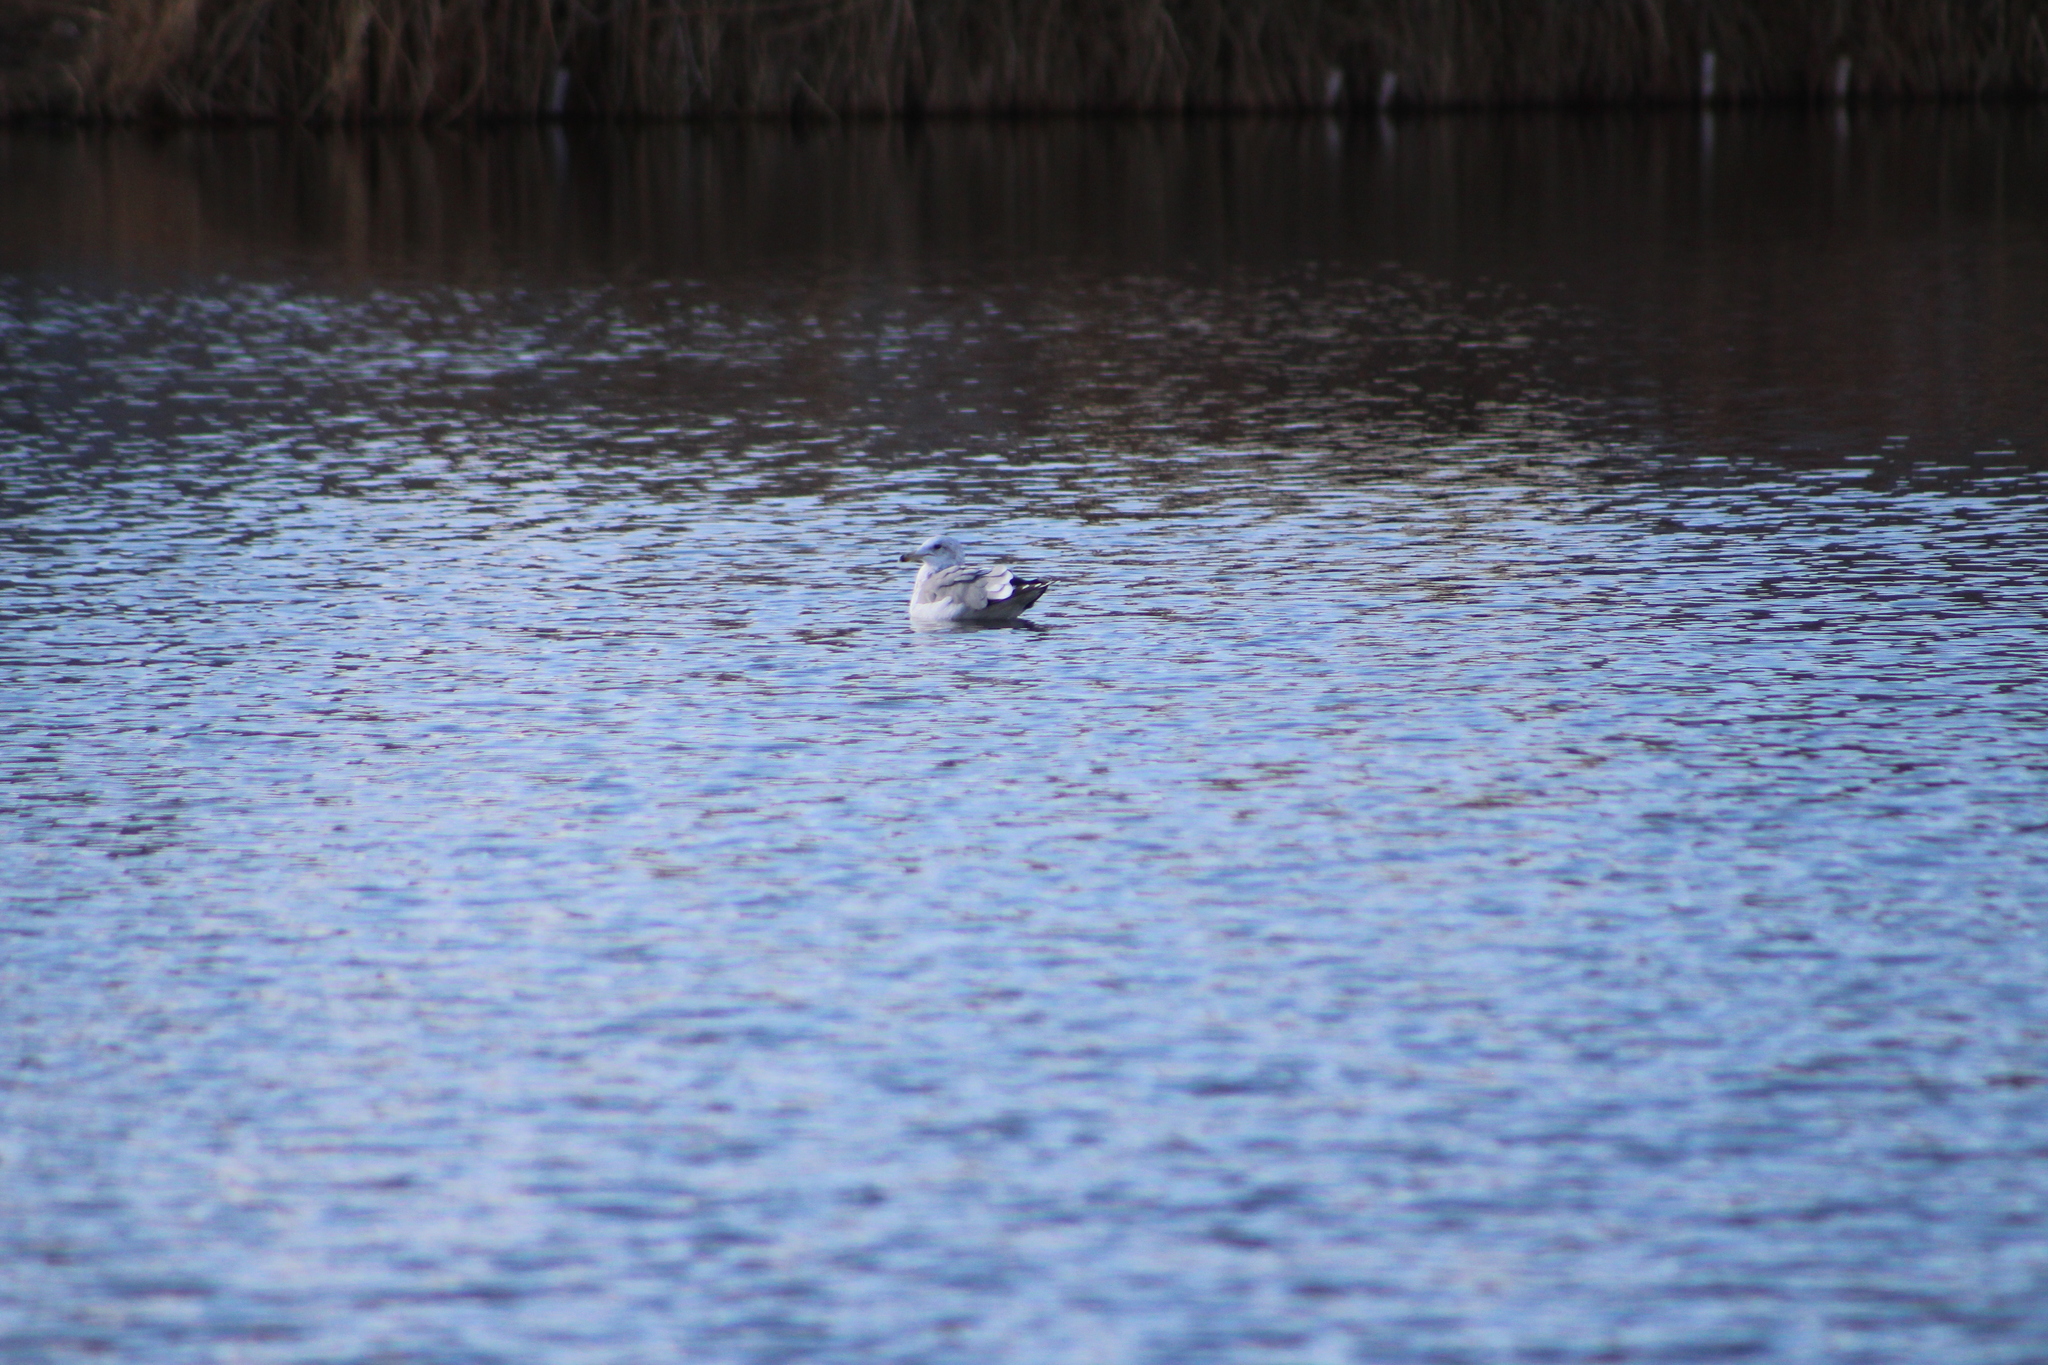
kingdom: Animalia
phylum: Chordata
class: Aves
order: Charadriiformes
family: Laridae
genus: Larus
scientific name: Larus californicus
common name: California gull
